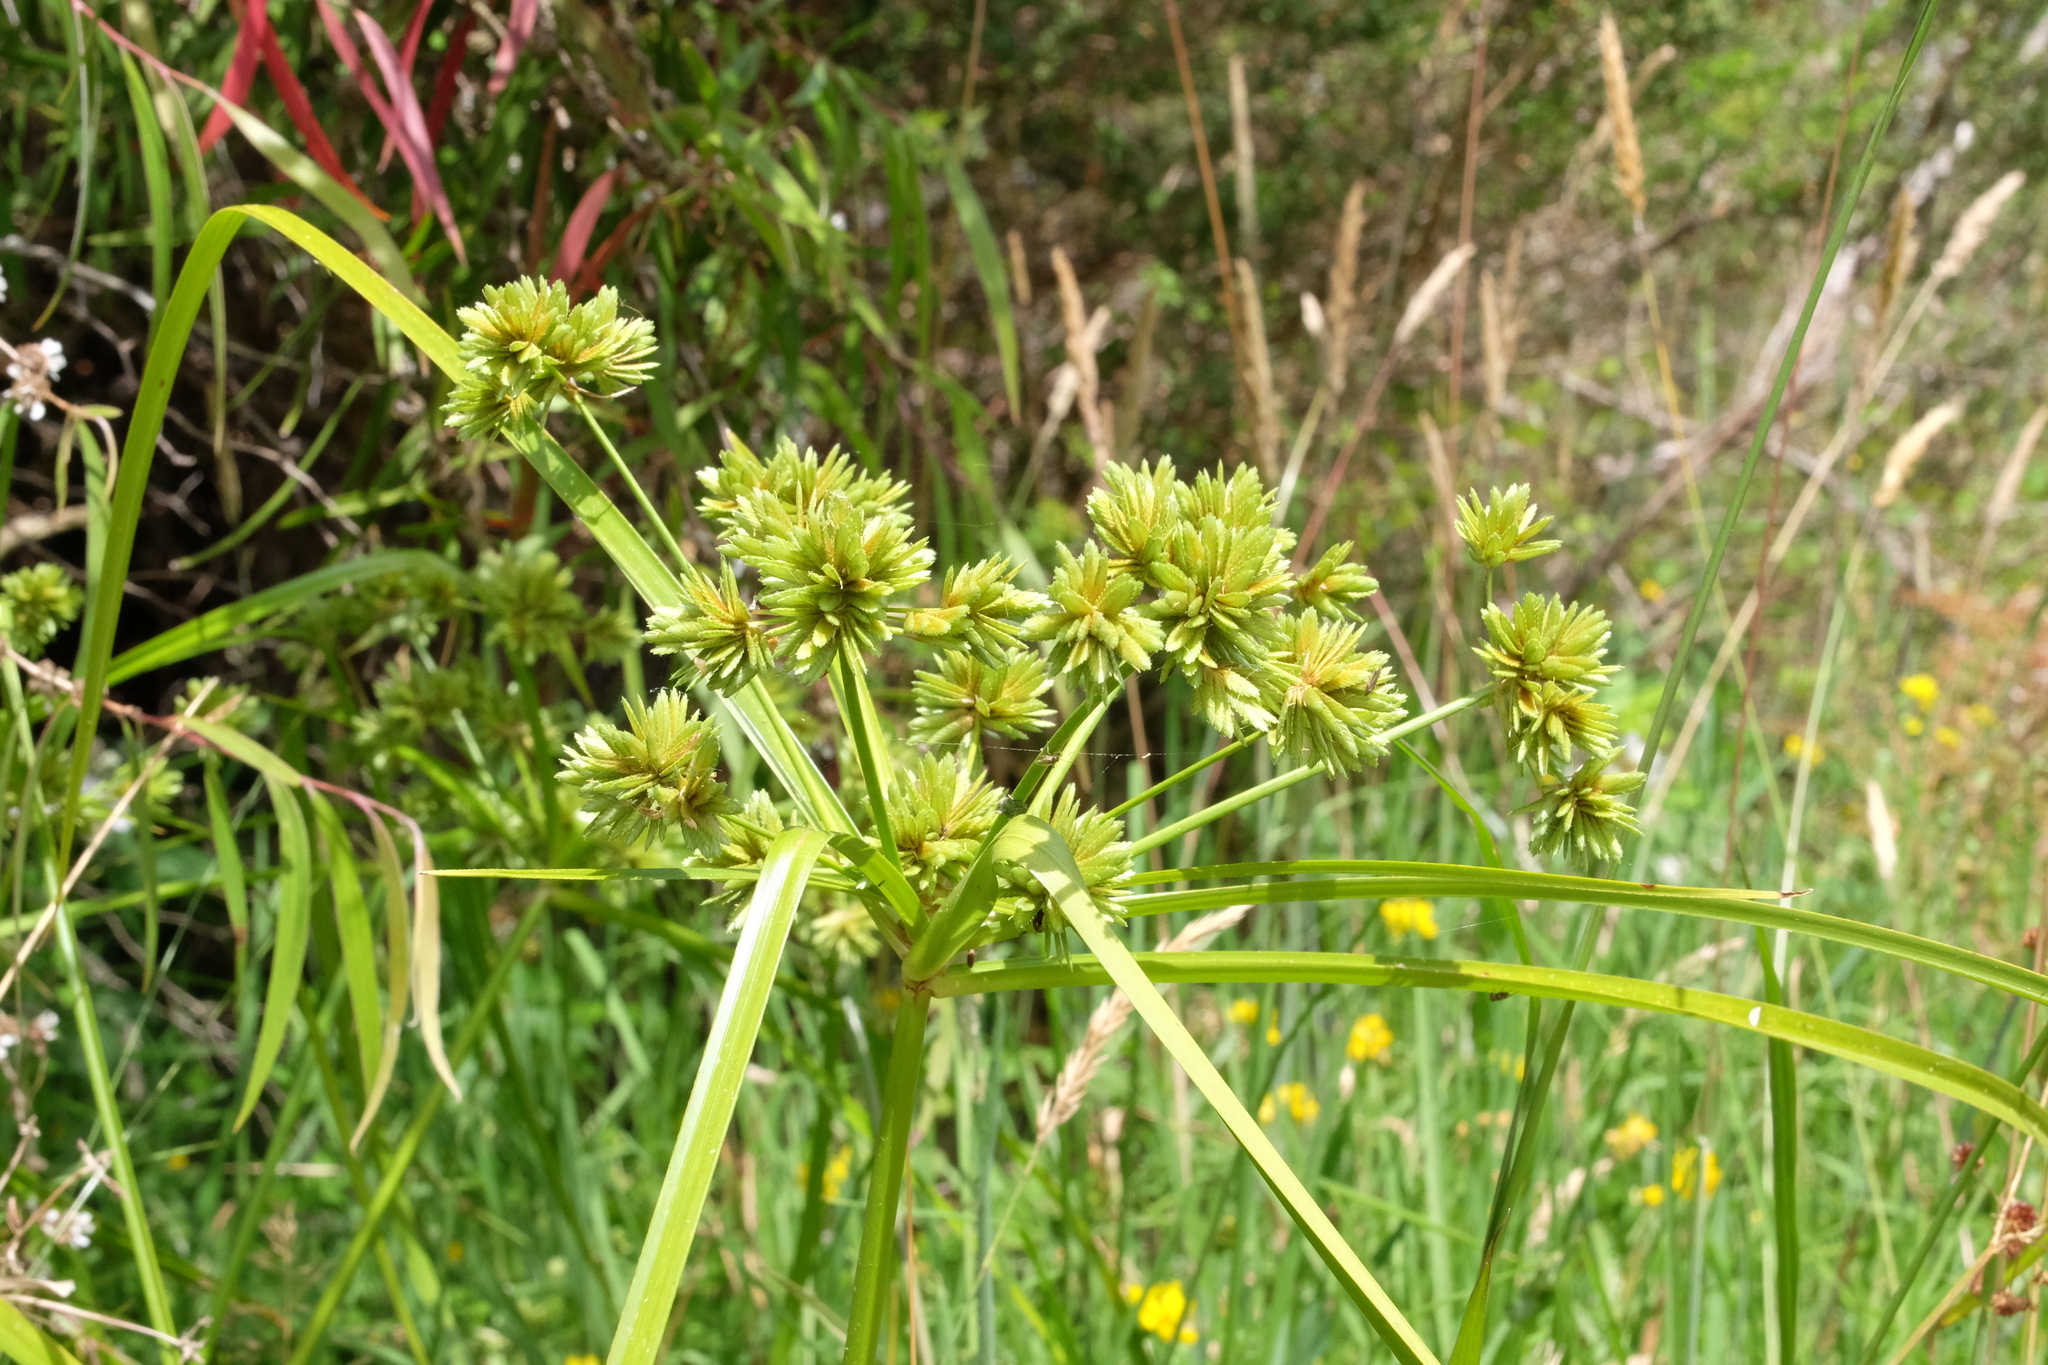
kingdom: Plantae
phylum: Tracheophyta
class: Liliopsida
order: Poales
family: Cyperaceae
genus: Cyperus
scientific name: Cyperus eragrostis
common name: Tall flatsedge
